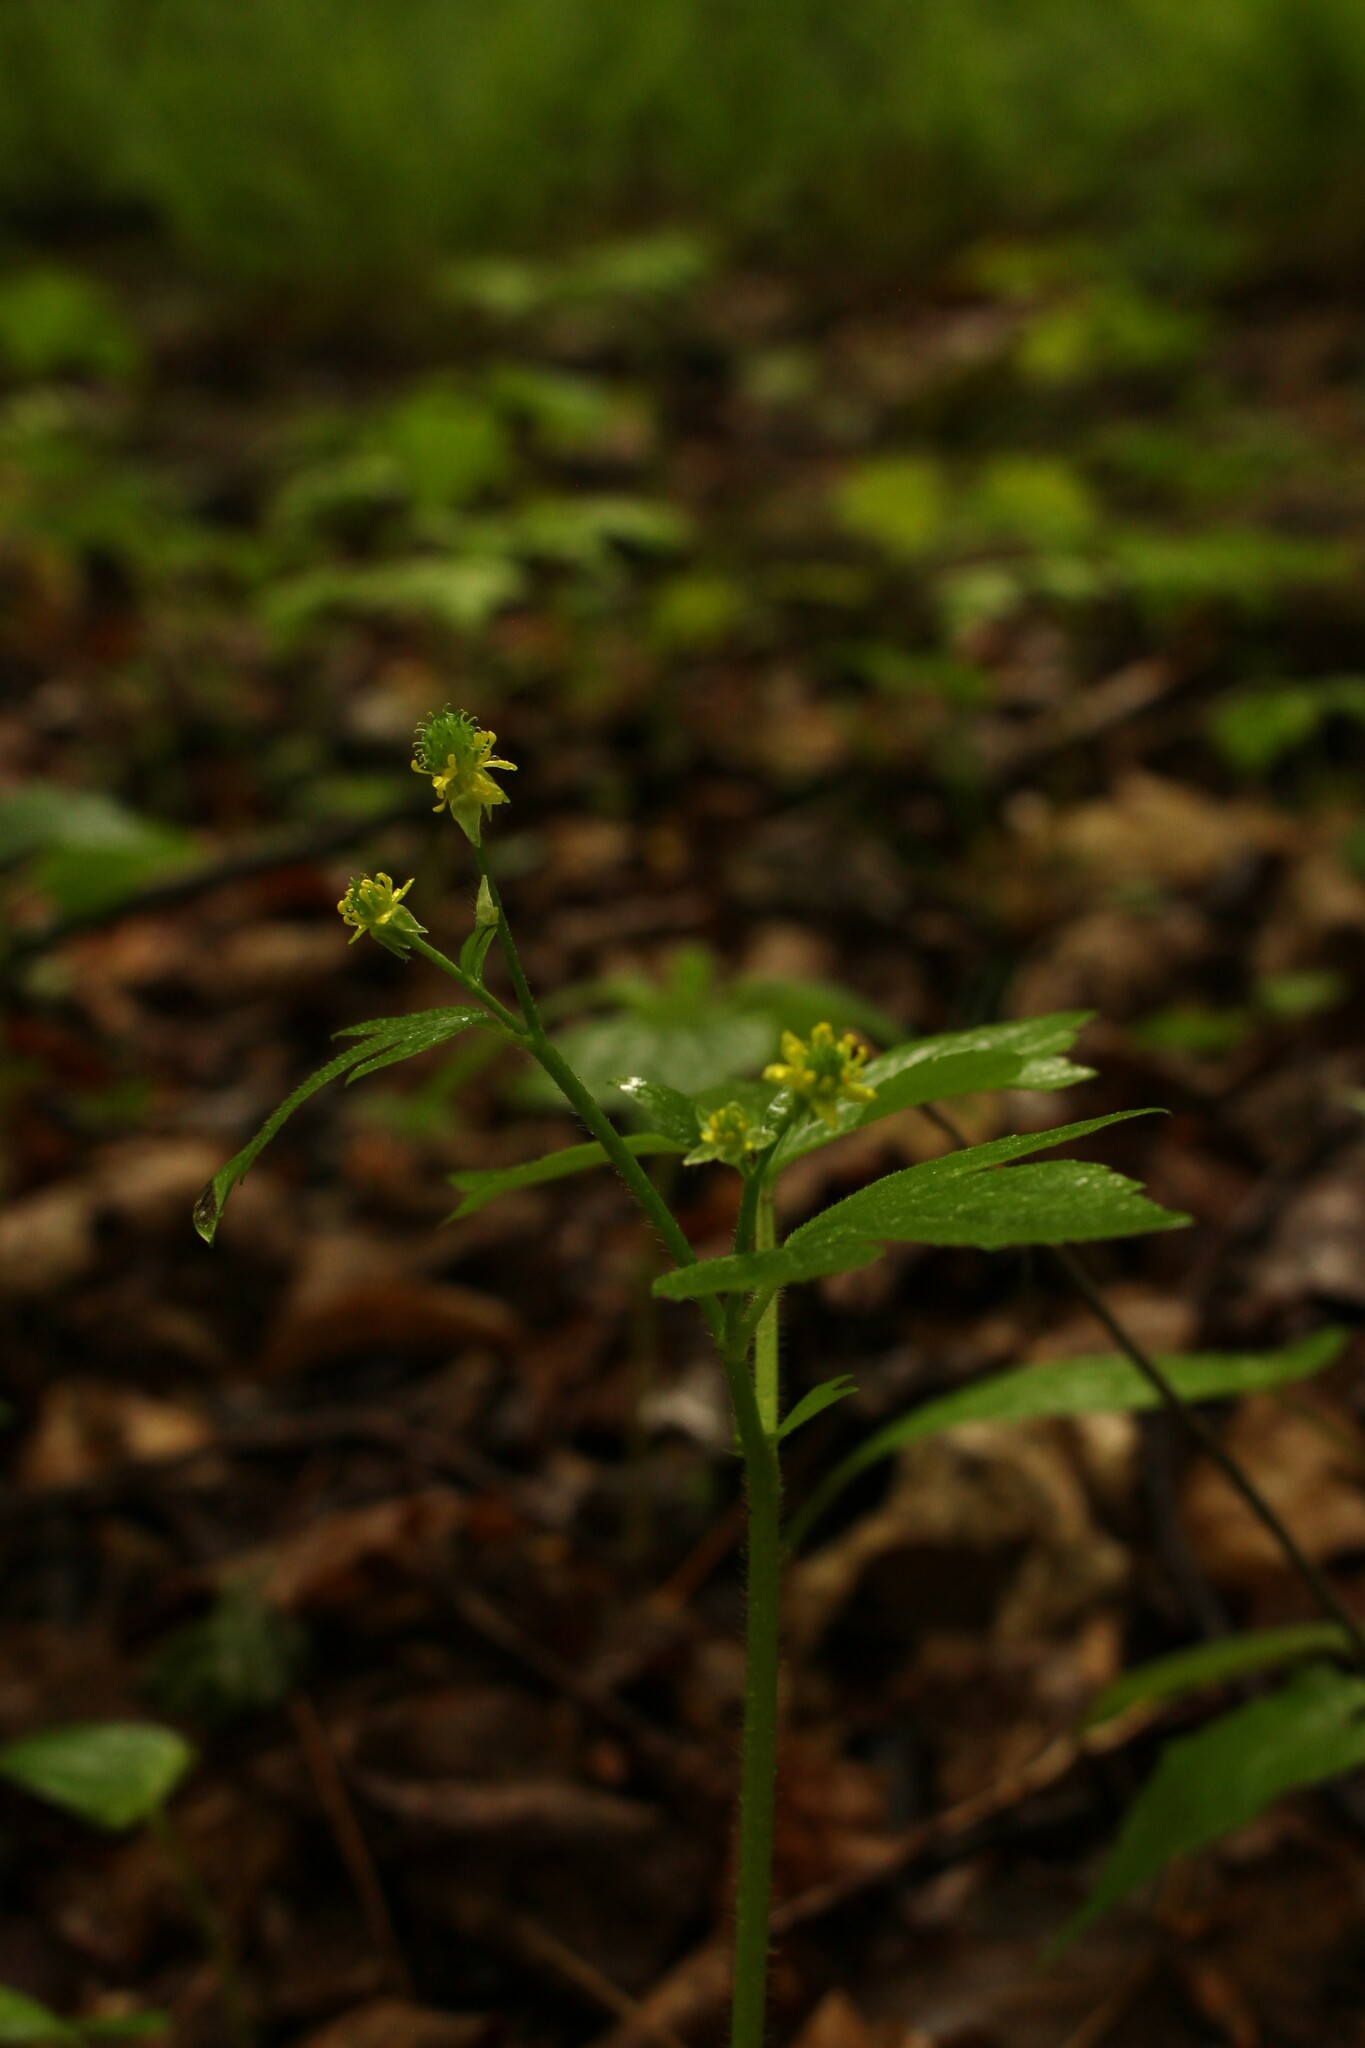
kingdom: Plantae
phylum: Tracheophyta
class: Magnoliopsida
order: Ranunculales
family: Ranunculaceae
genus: Ranunculus
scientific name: Ranunculus recurvatus
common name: Blisterwort
